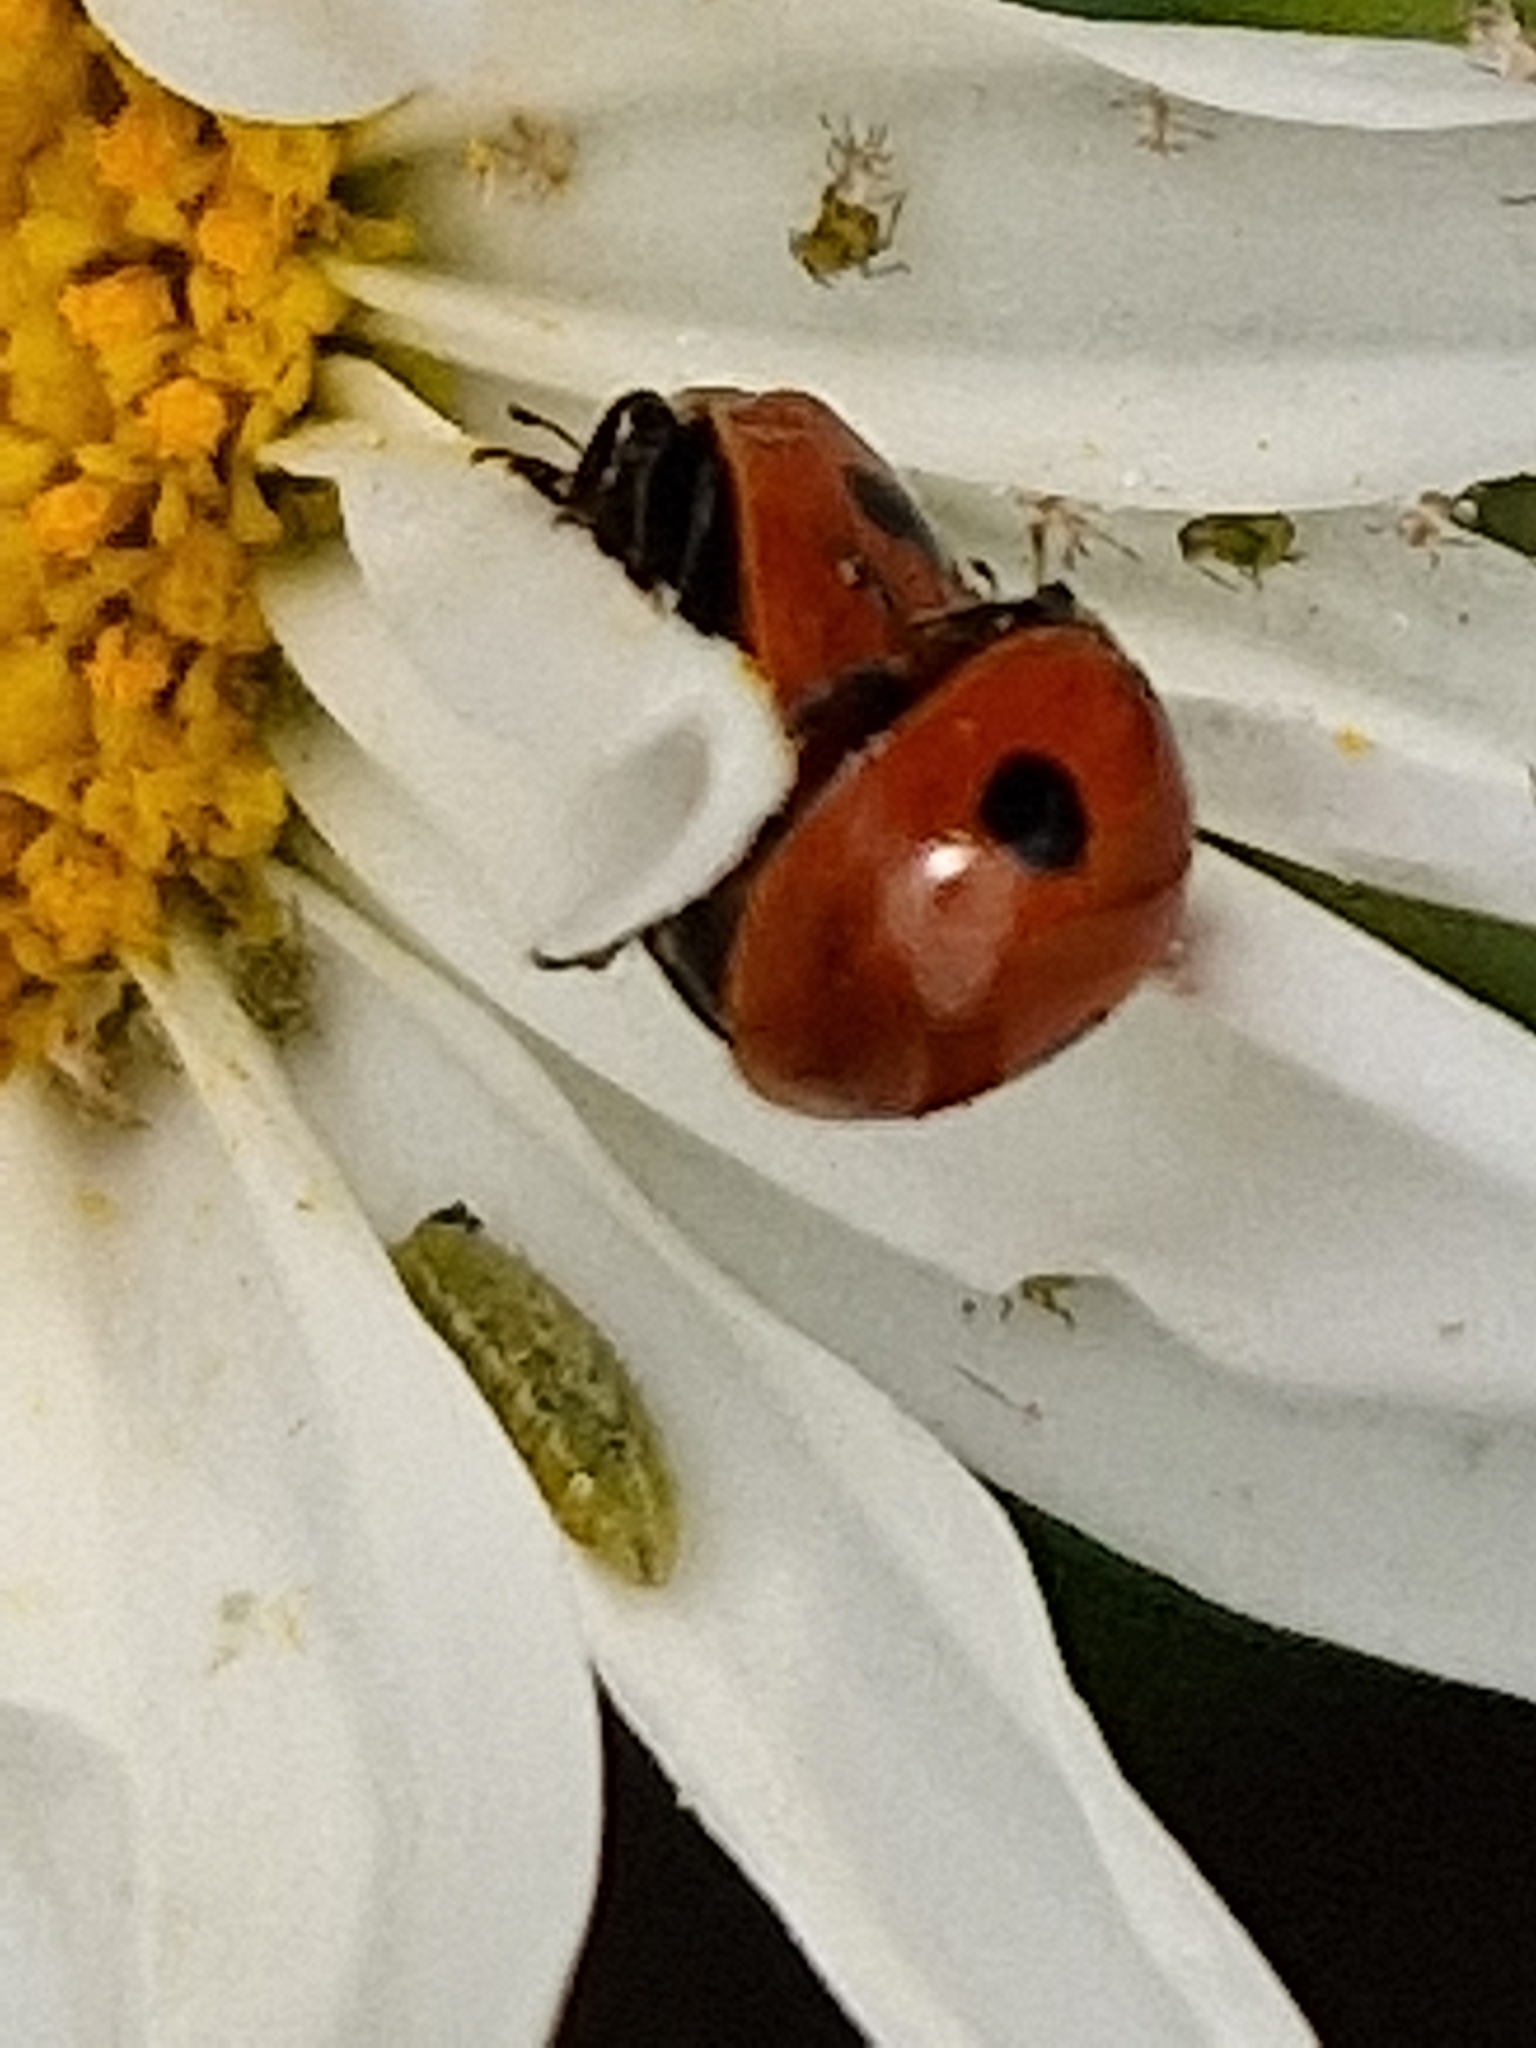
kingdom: Animalia
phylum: Arthropoda
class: Insecta
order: Coleoptera
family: Coccinellidae
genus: Adalia
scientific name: Adalia bipunctata
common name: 2-spot ladybird
